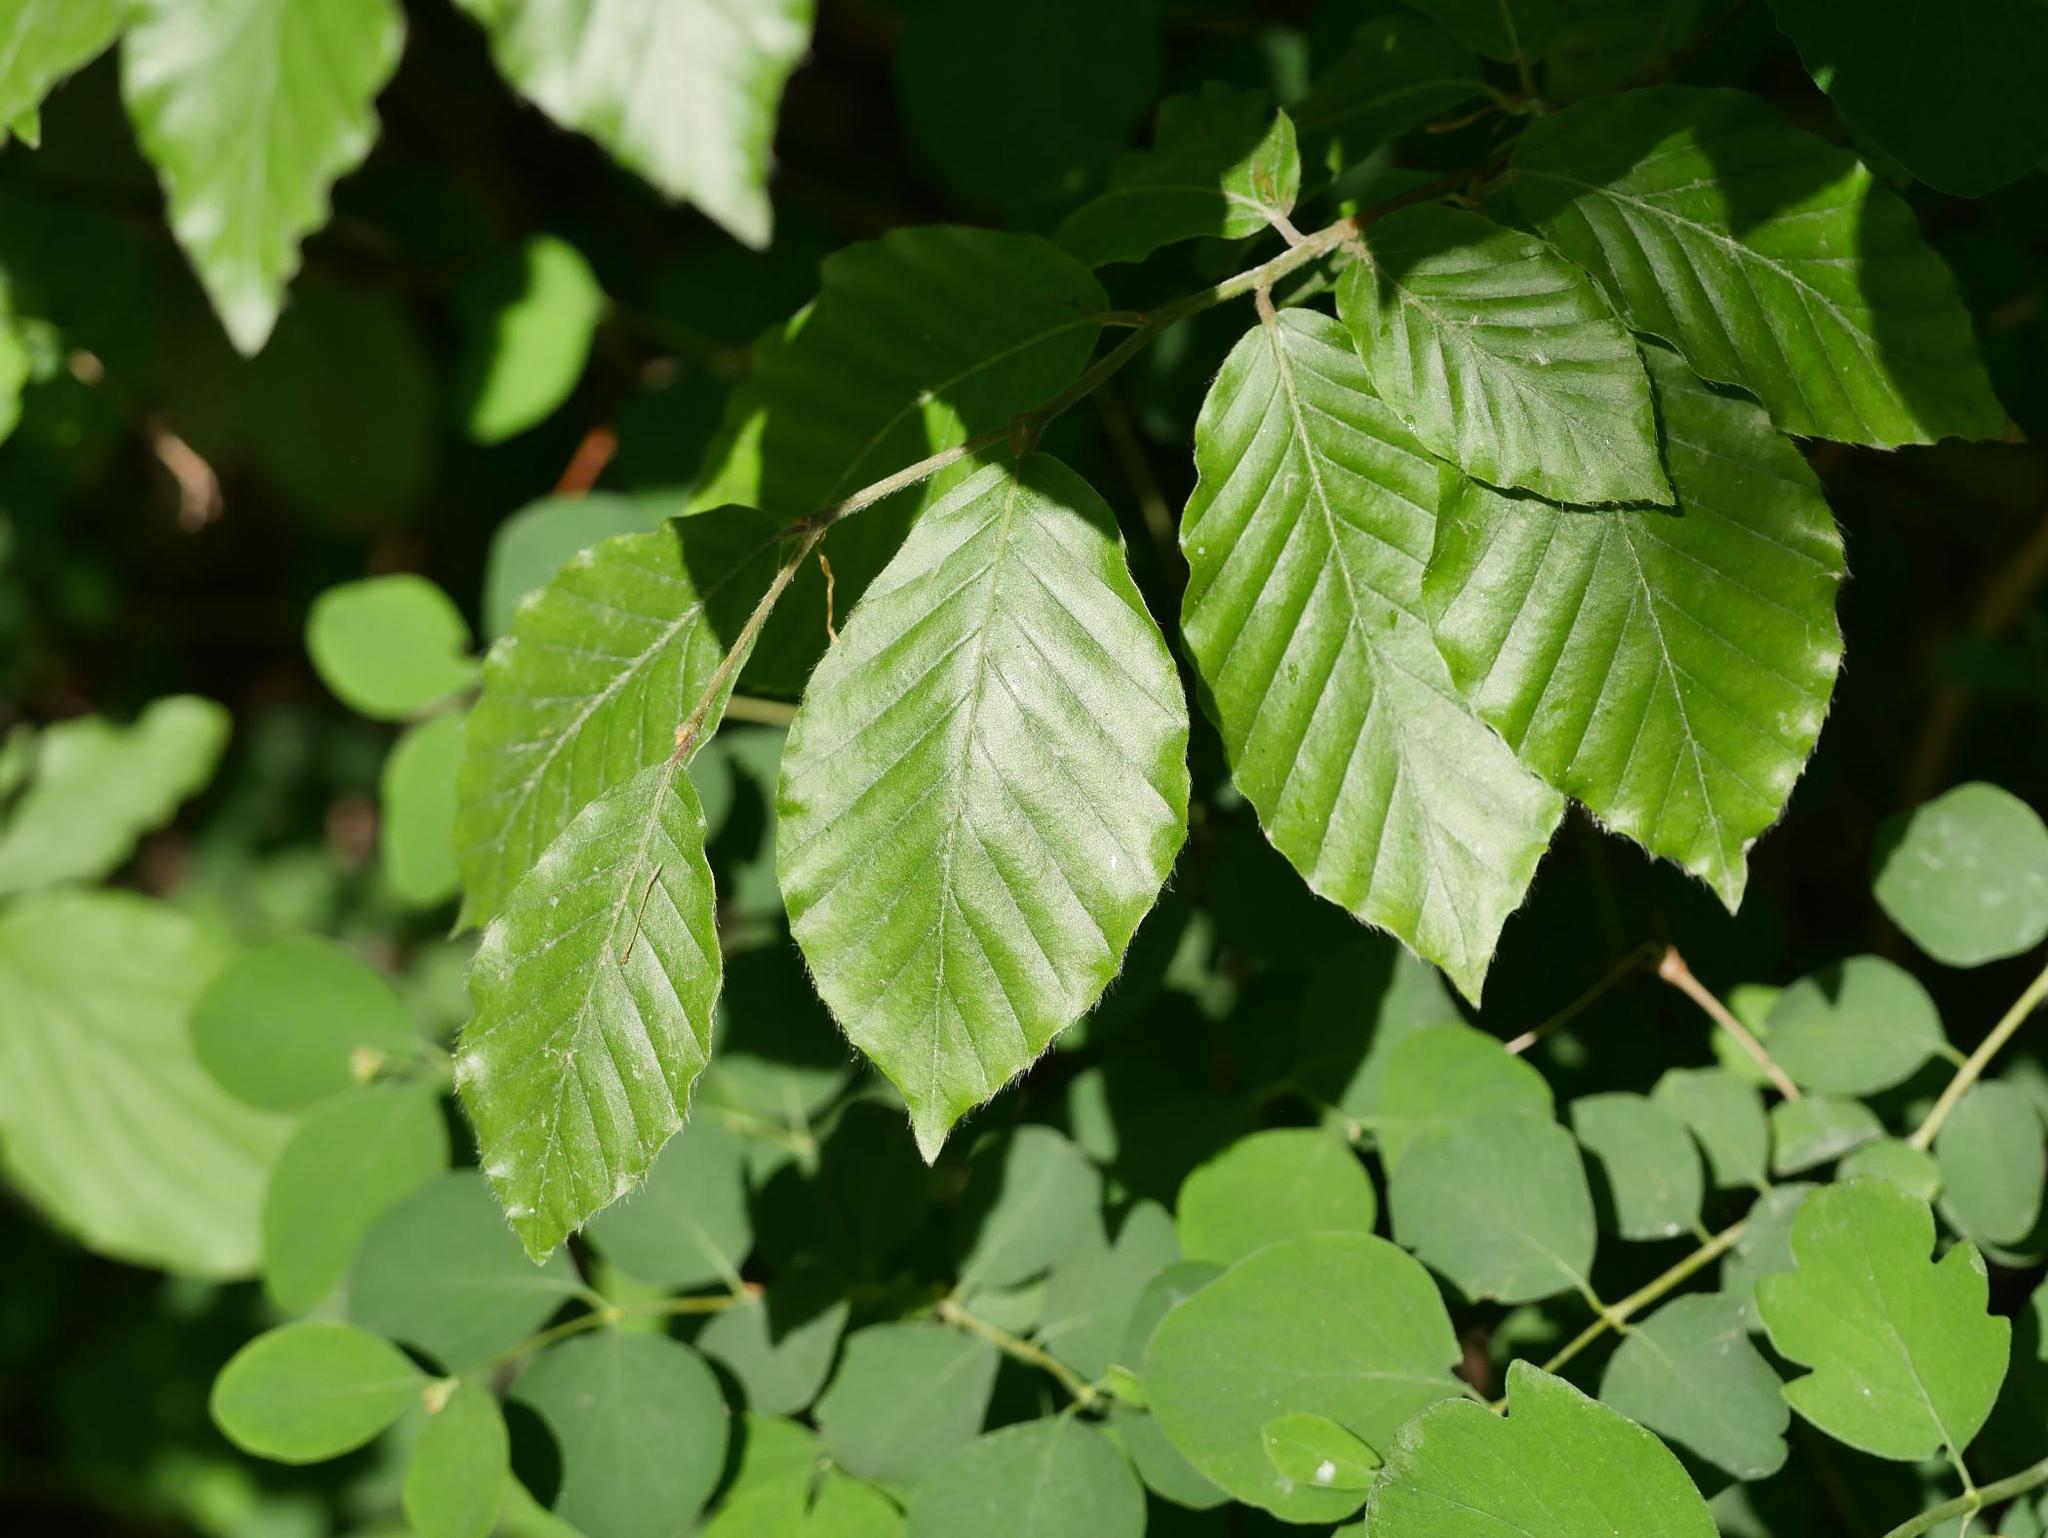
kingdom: Plantae
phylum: Tracheophyta
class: Magnoliopsida
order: Fagales
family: Fagaceae
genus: Fagus
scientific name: Fagus sylvatica
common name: Beech
